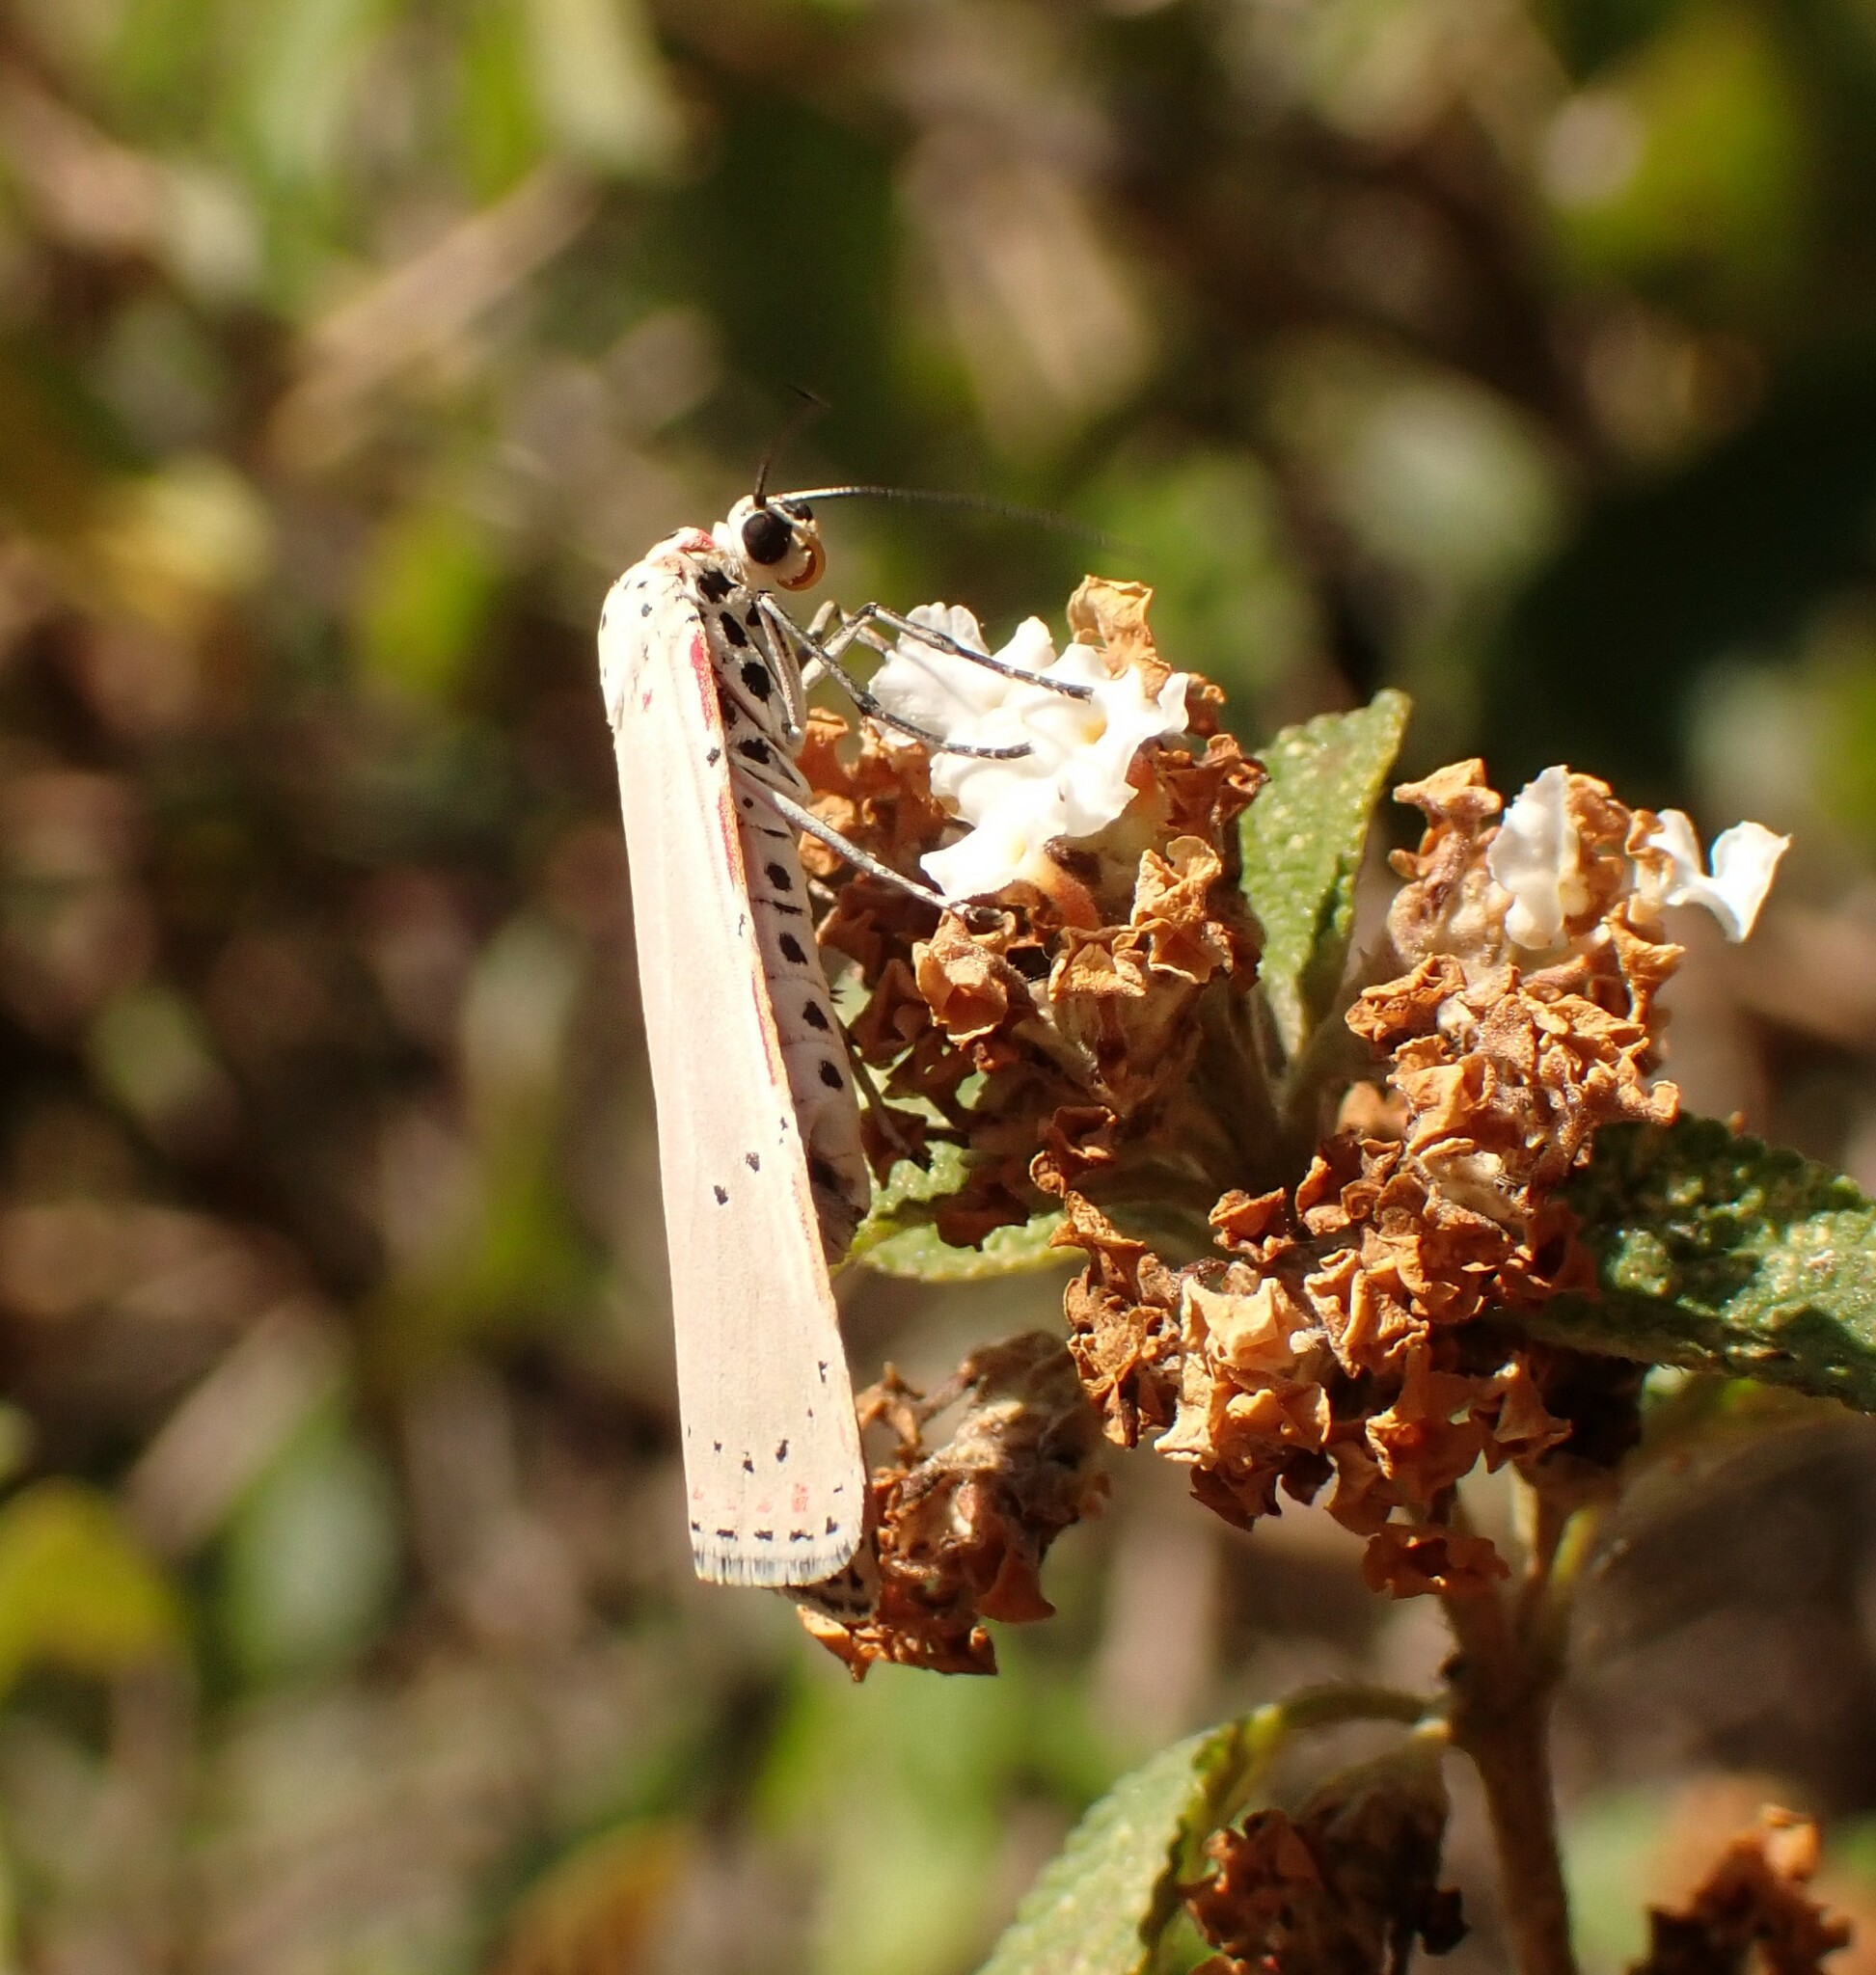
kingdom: Animalia
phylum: Arthropoda
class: Insecta
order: Lepidoptera
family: Erebidae
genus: Utetheisa
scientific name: Utetheisa ornatrix
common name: Beautiful utetheisa
